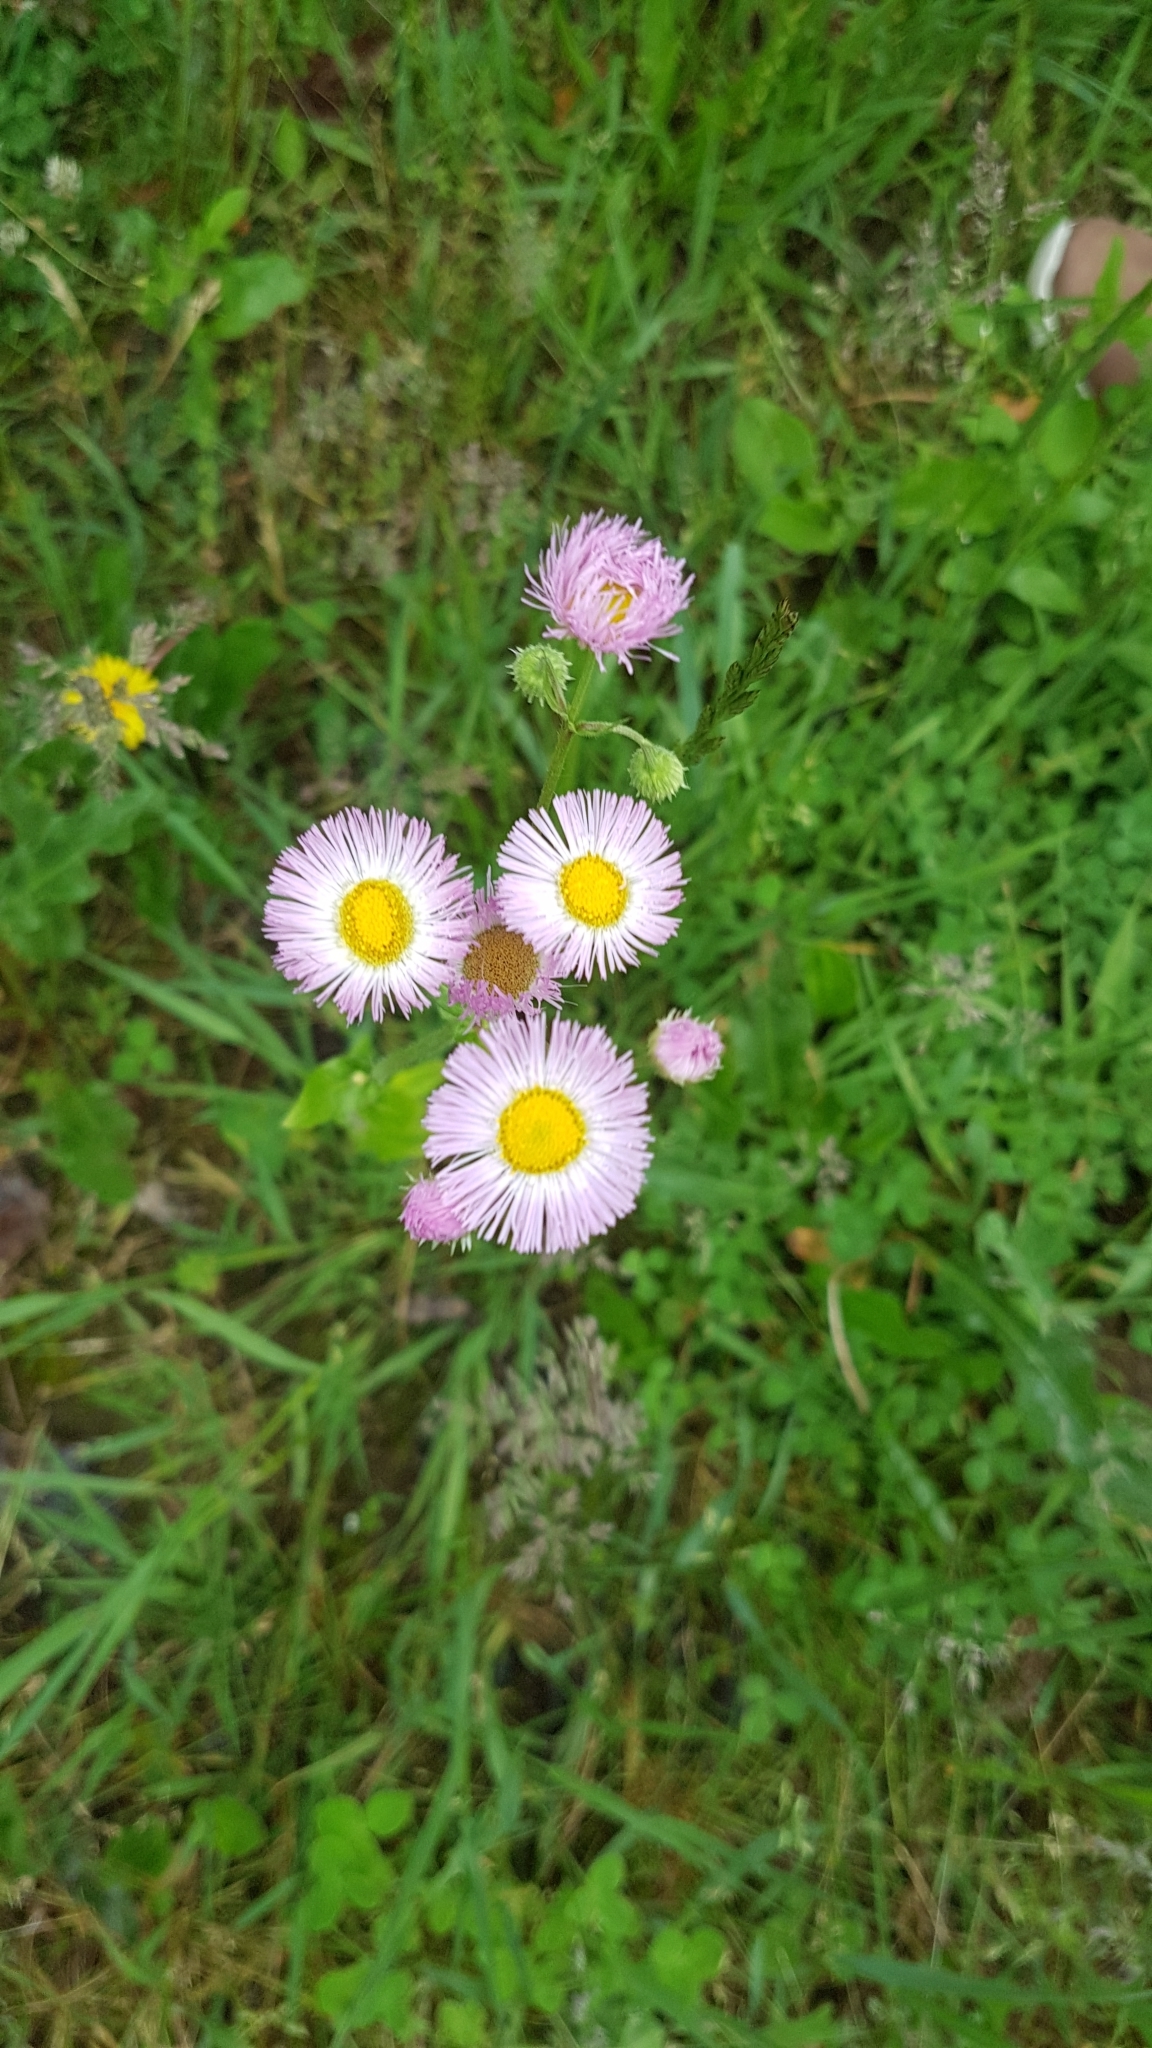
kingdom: Plantae
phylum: Tracheophyta
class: Magnoliopsida
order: Asterales
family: Asteraceae
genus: Erigeron
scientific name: Erigeron philadelphicus
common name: Robin's-plantain
